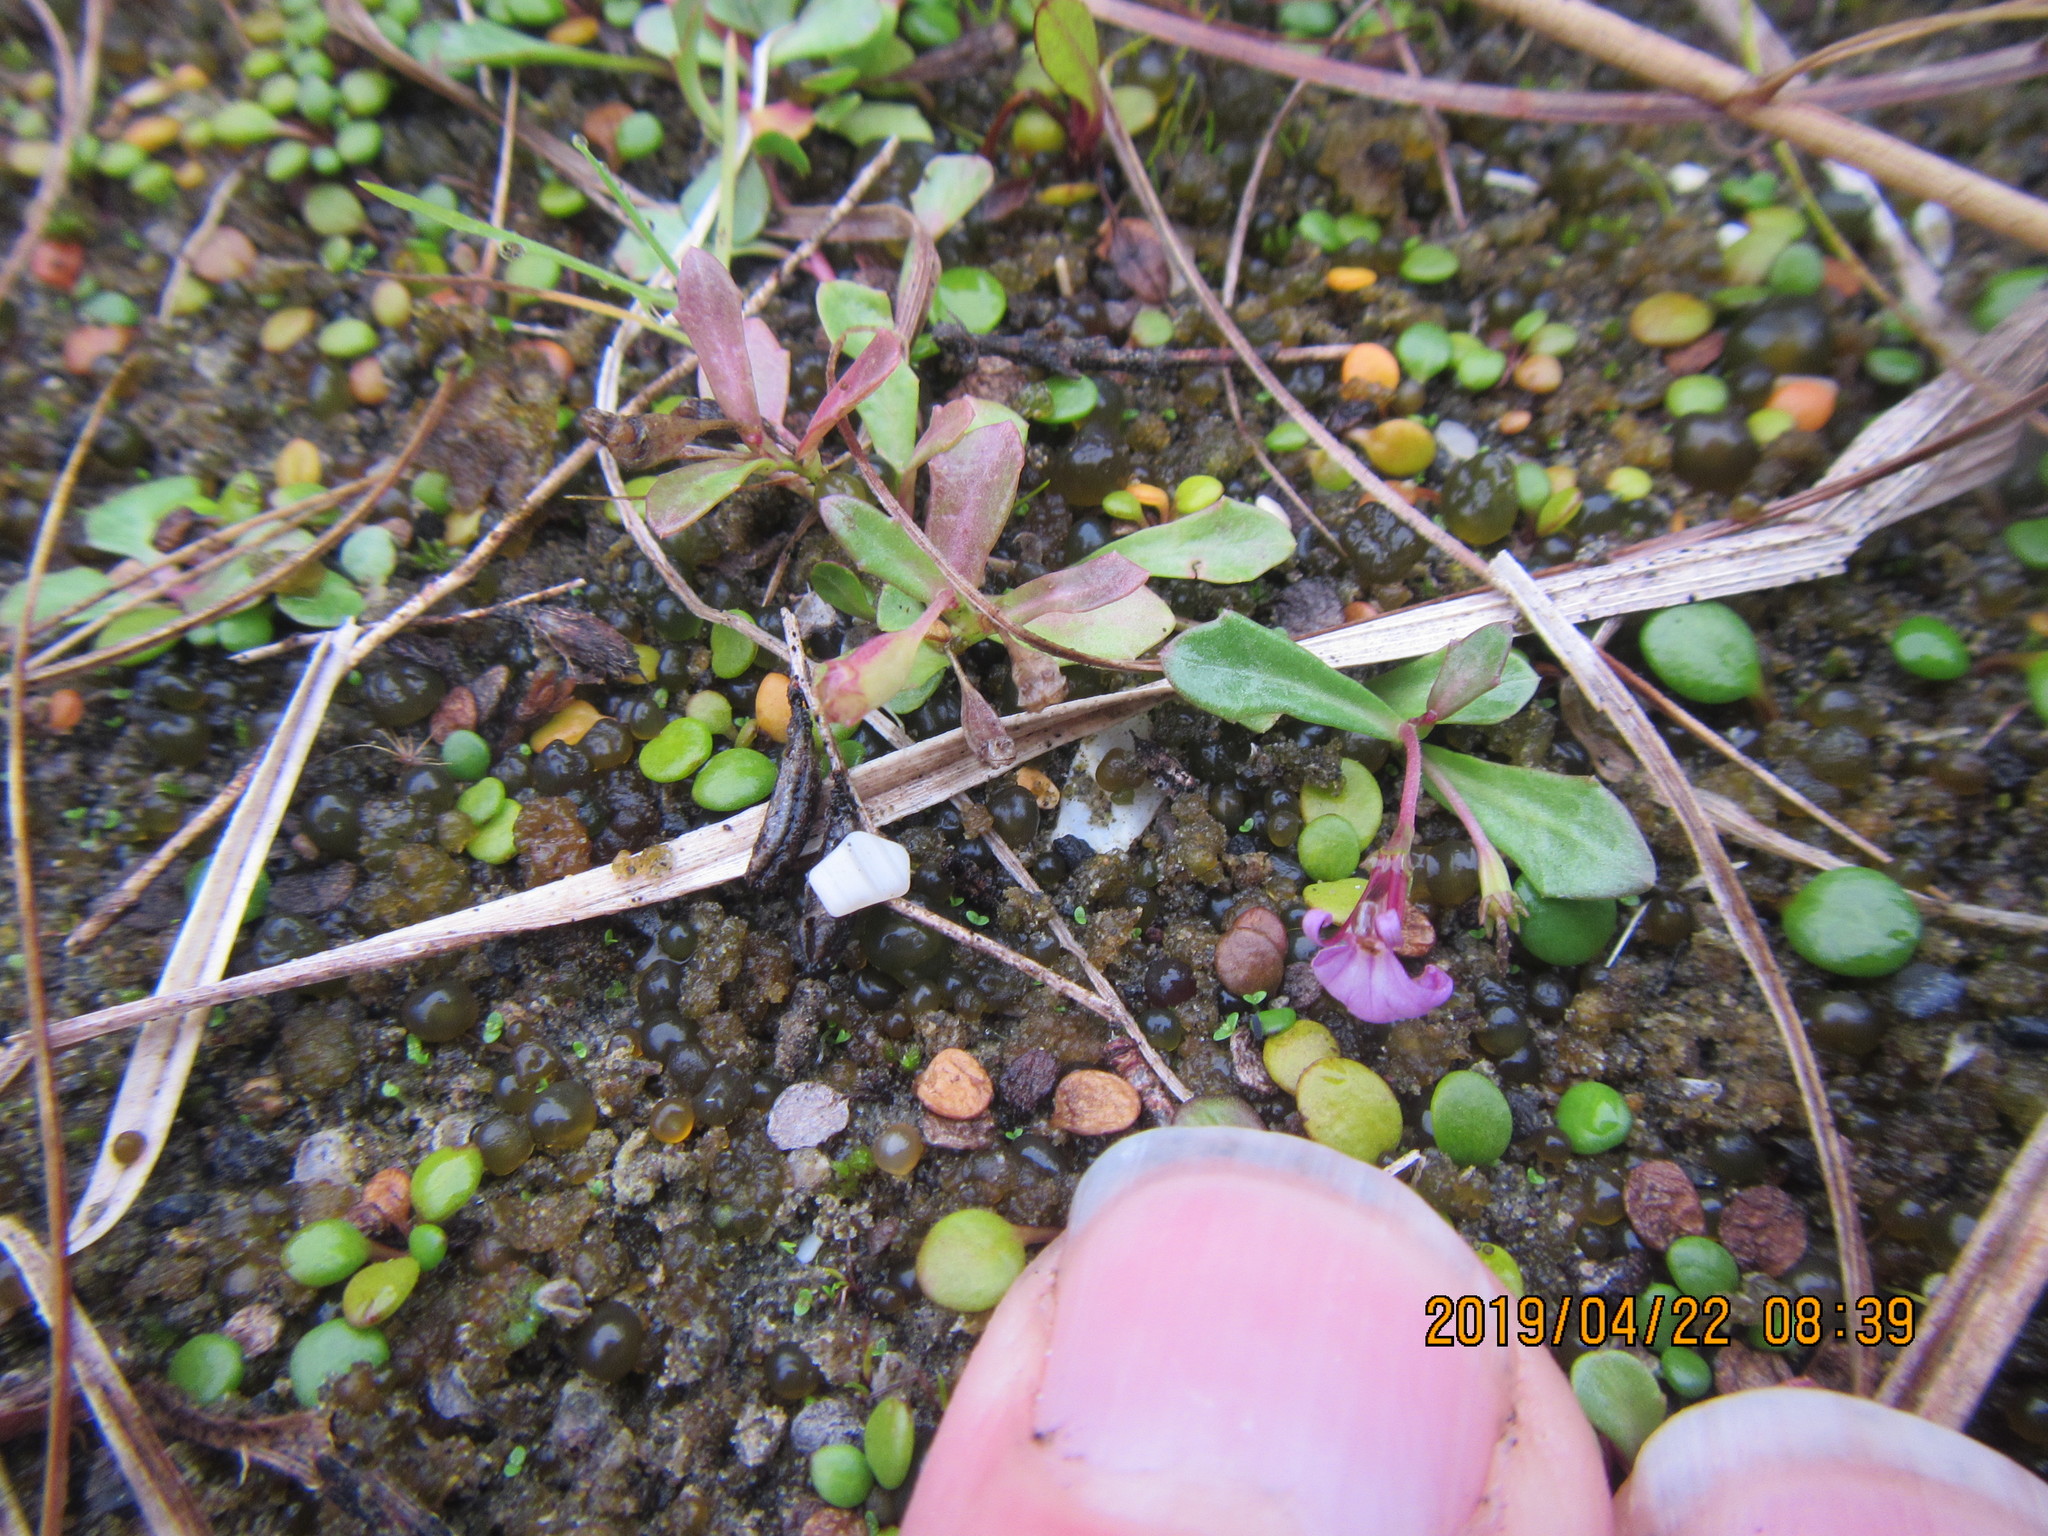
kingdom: Plantae
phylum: Tracheophyta
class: Magnoliopsida
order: Asterales
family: Campanulaceae
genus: Lobelia
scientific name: Lobelia anceps
